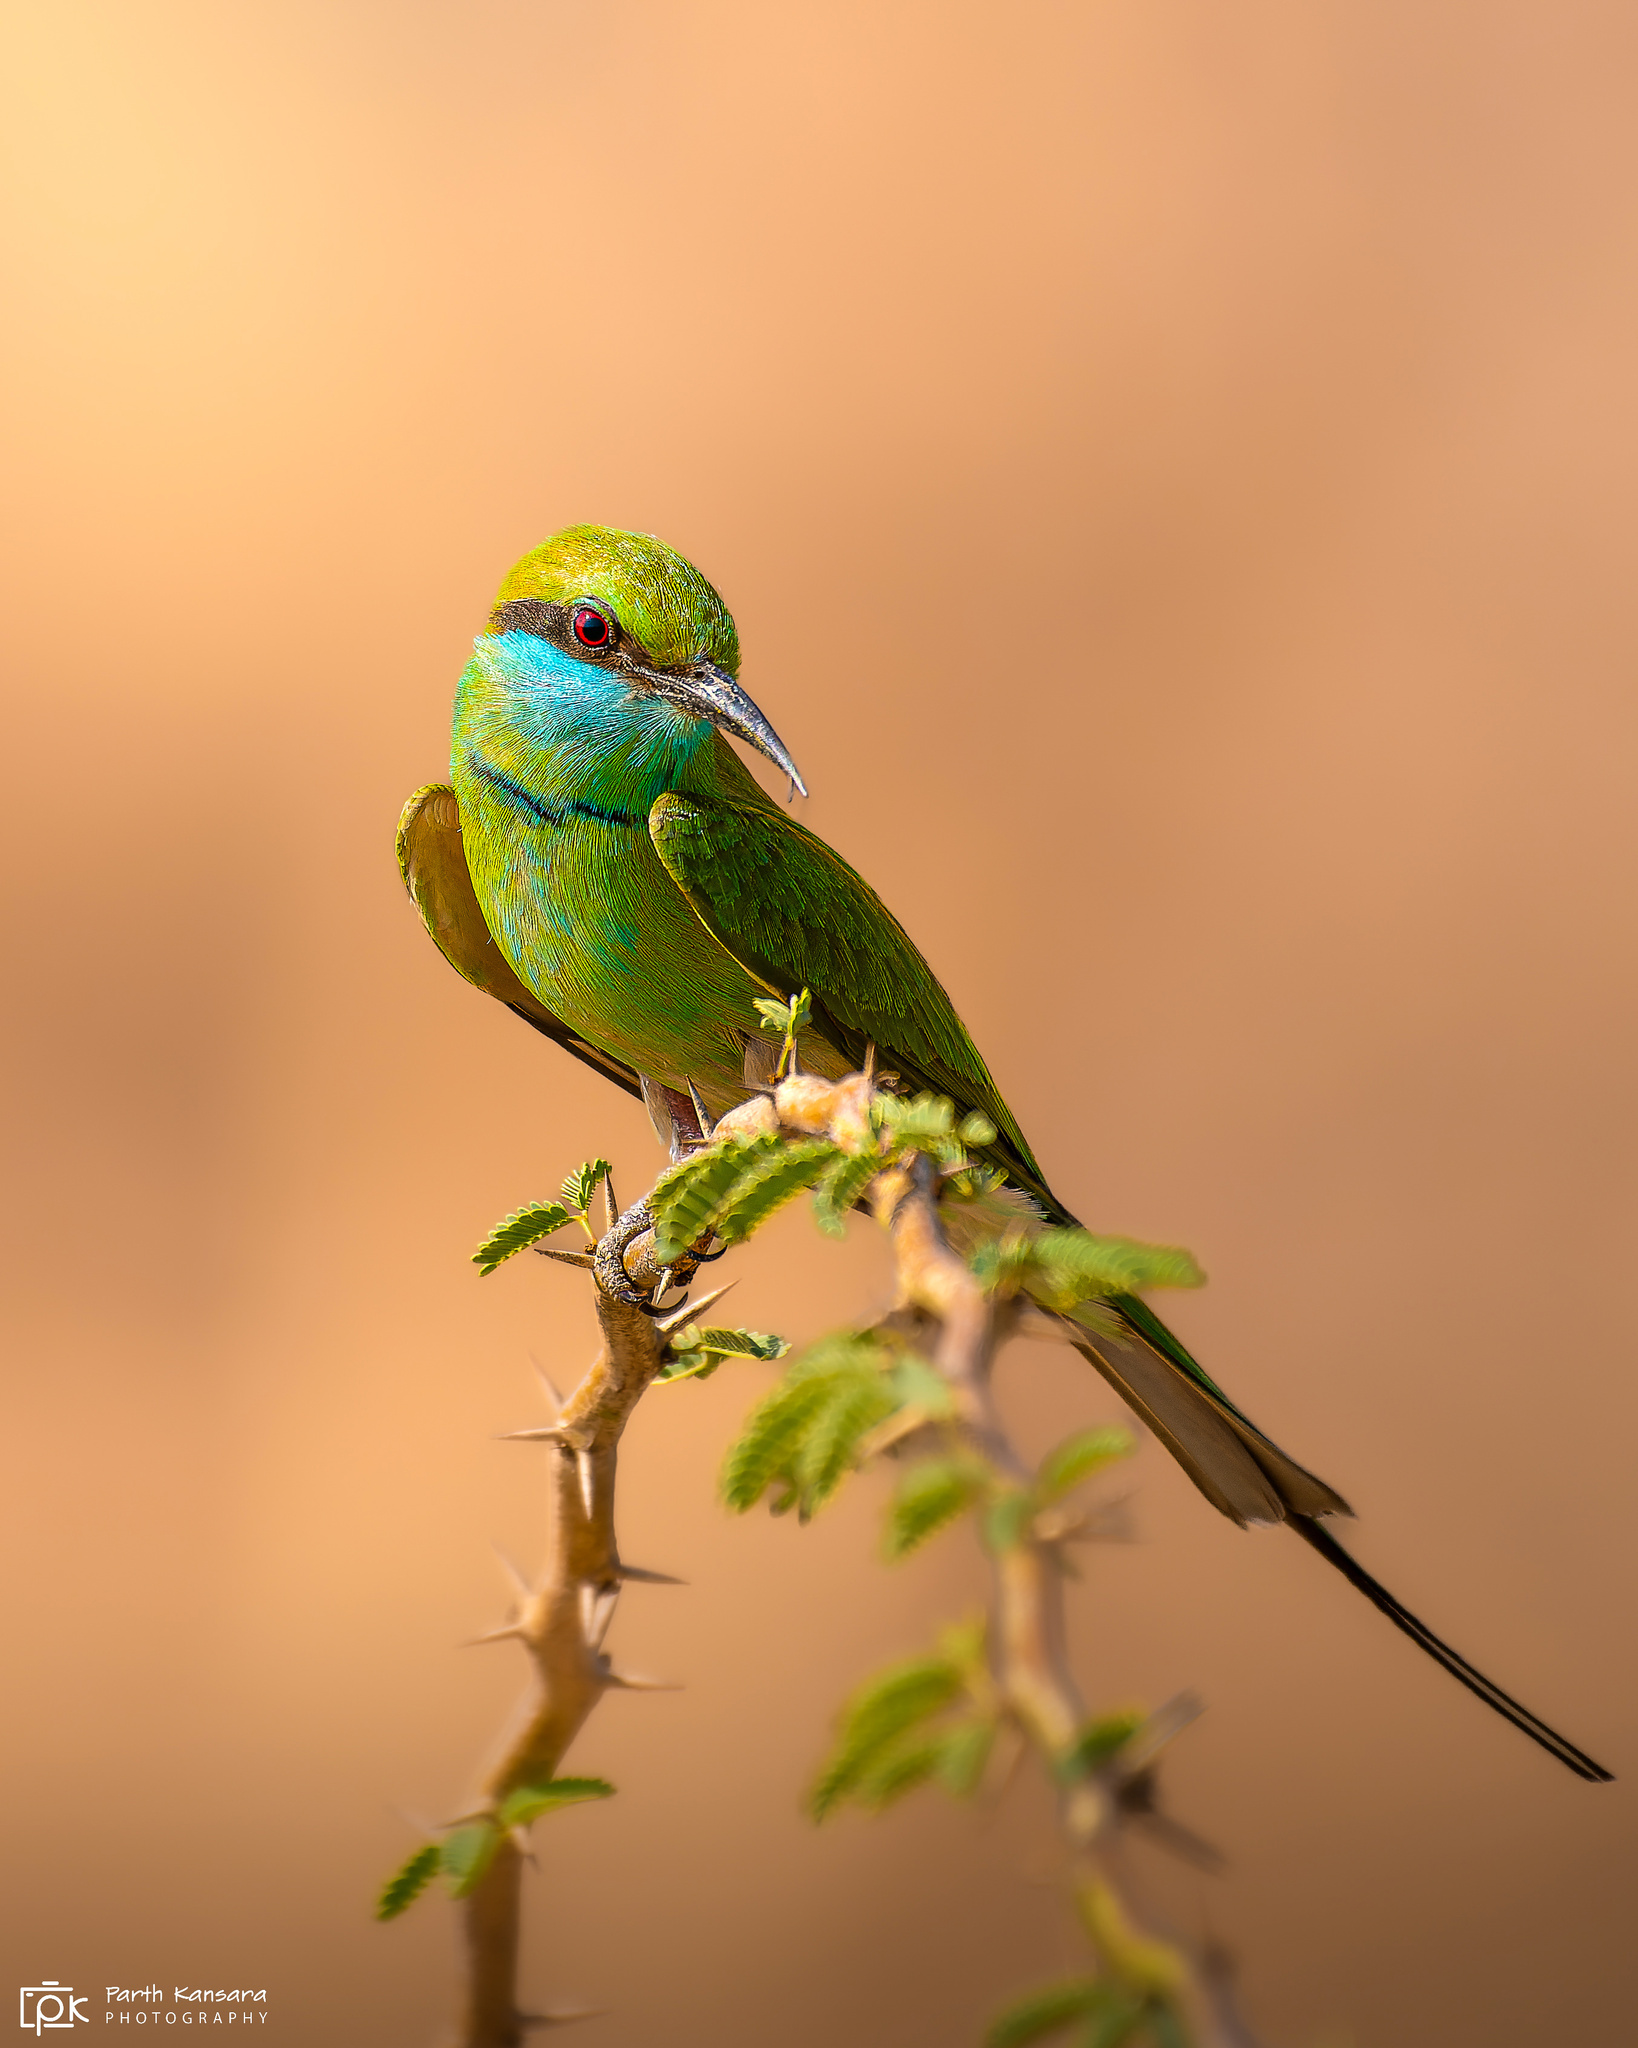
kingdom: Animalia
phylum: Chordata
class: Aves
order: Coraciiformes
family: Meropidae
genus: Merops
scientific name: Merops orientalis
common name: Green bee-eater
